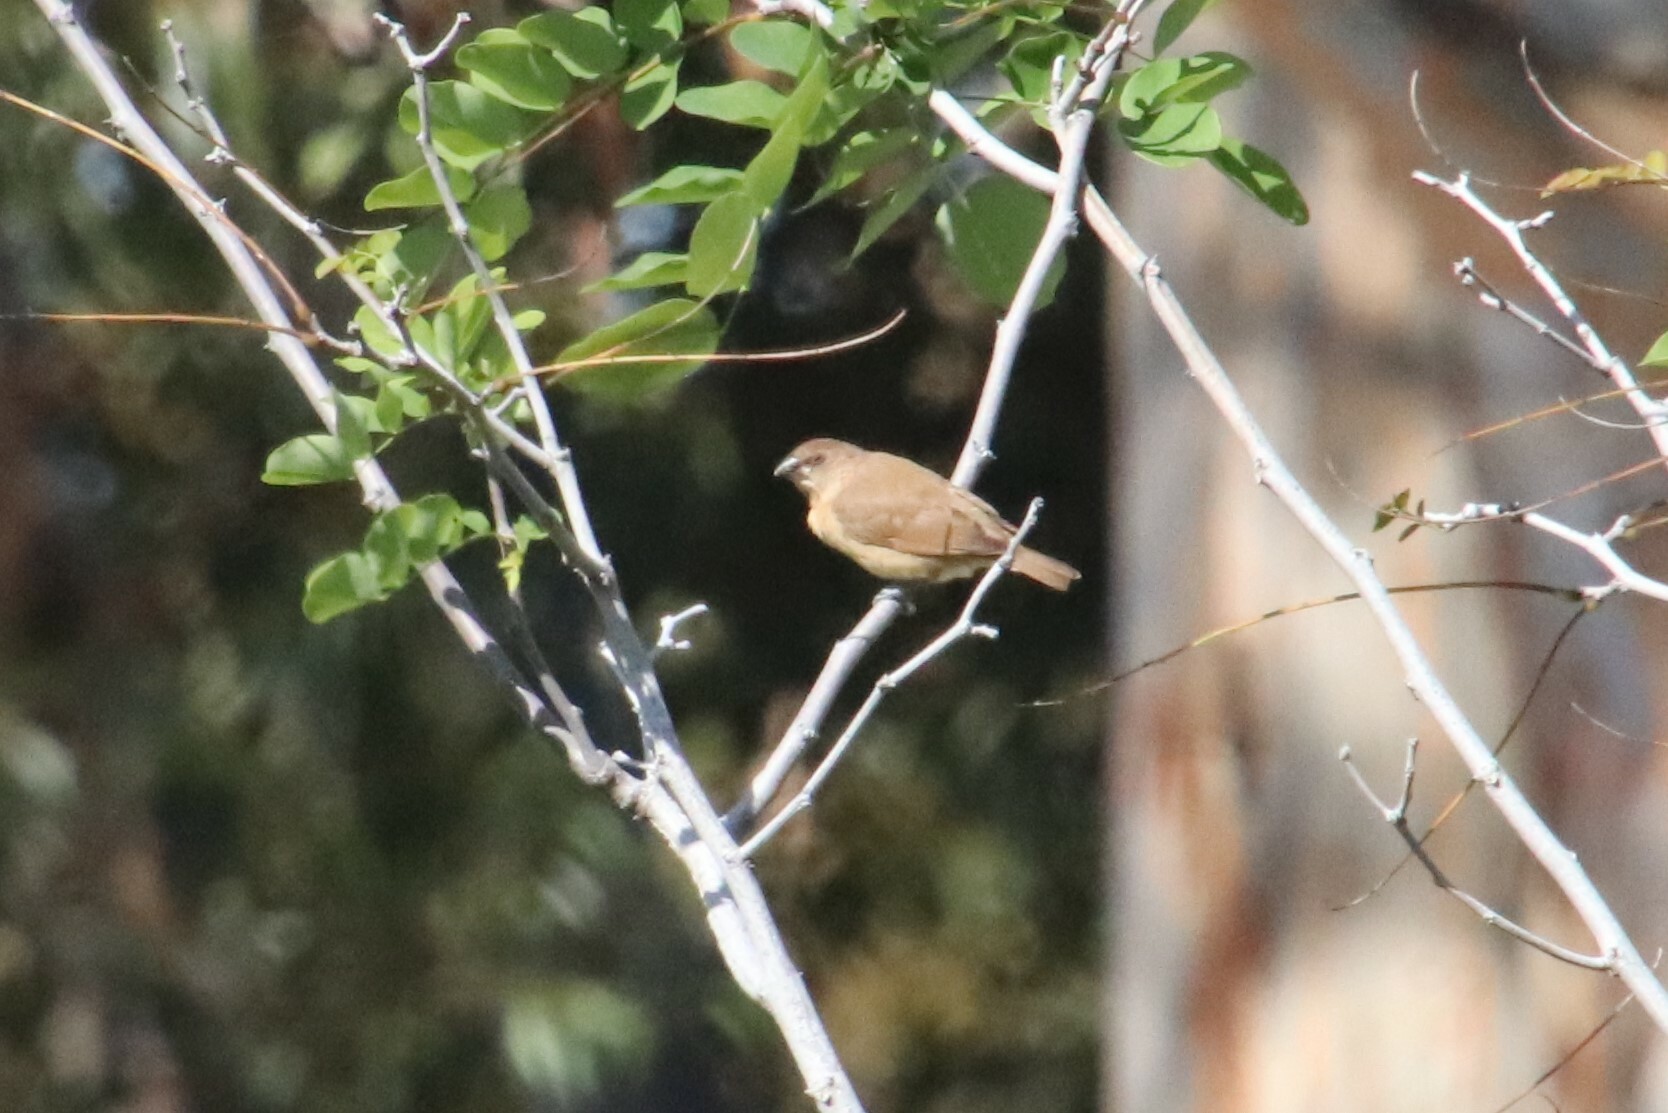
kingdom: Animalia
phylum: Chordata
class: Aves
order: Passeriformes
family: Estrildidae
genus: Lonchura
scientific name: Lonchura punctulata
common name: Scaly-breasted munia
